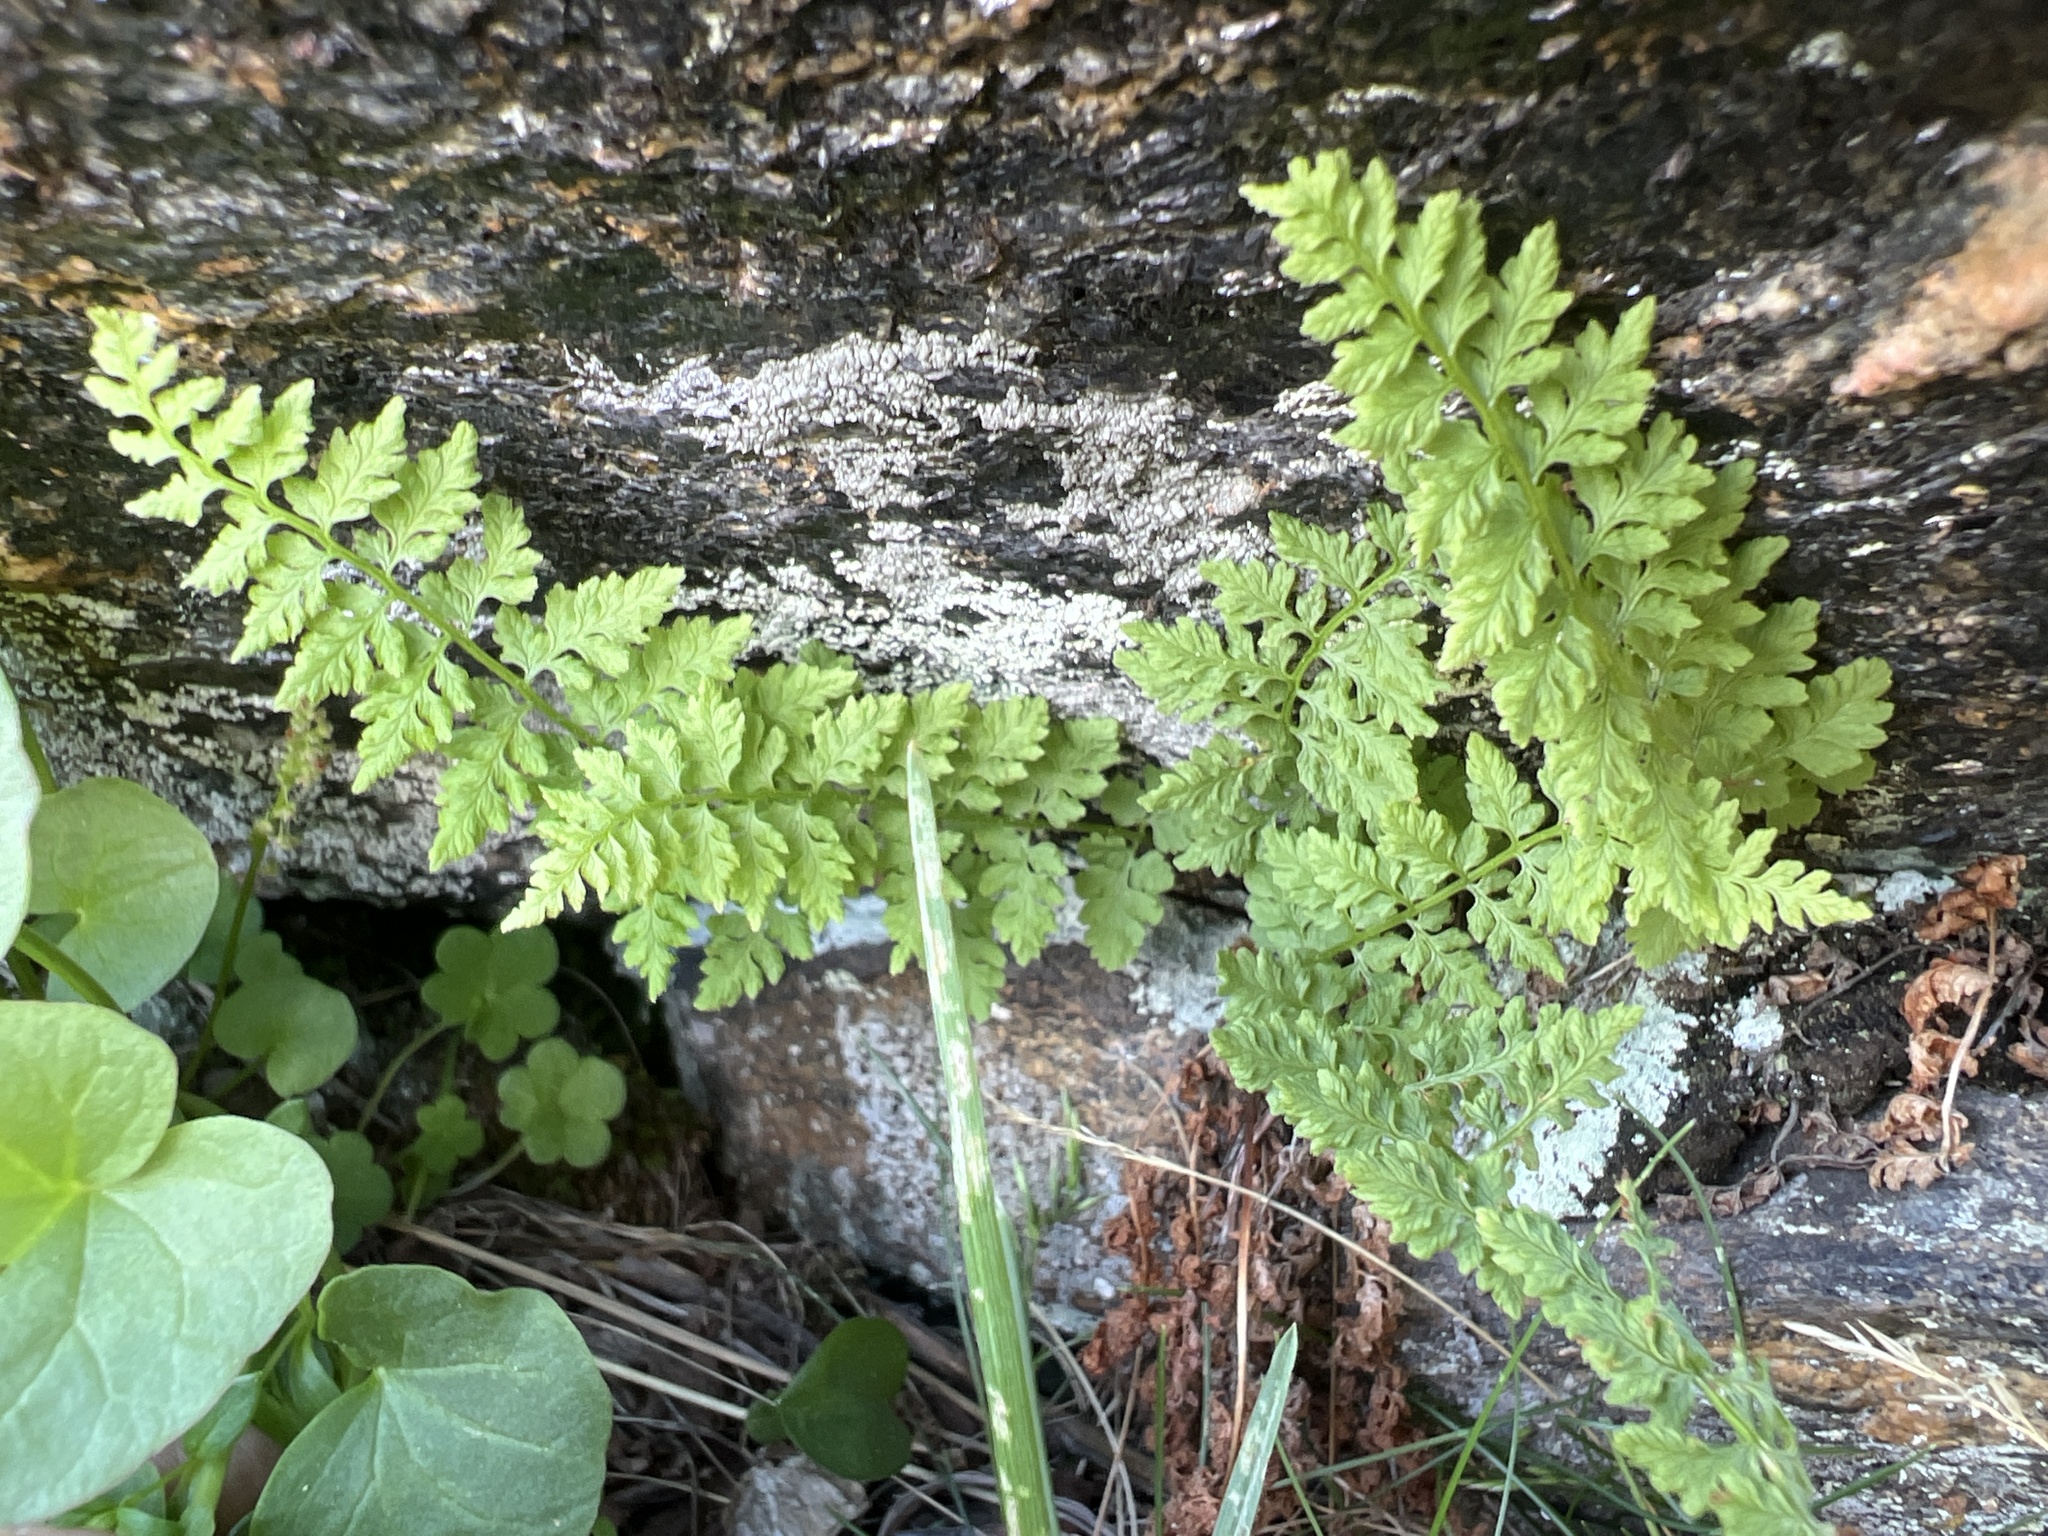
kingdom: Plantae
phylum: Tracheophyta
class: Polypodiopsida
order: Polypodiales
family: Cystopteridaceae
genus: Cystopteris
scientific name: Cystopteris fragilis
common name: Brittle bladder fern
